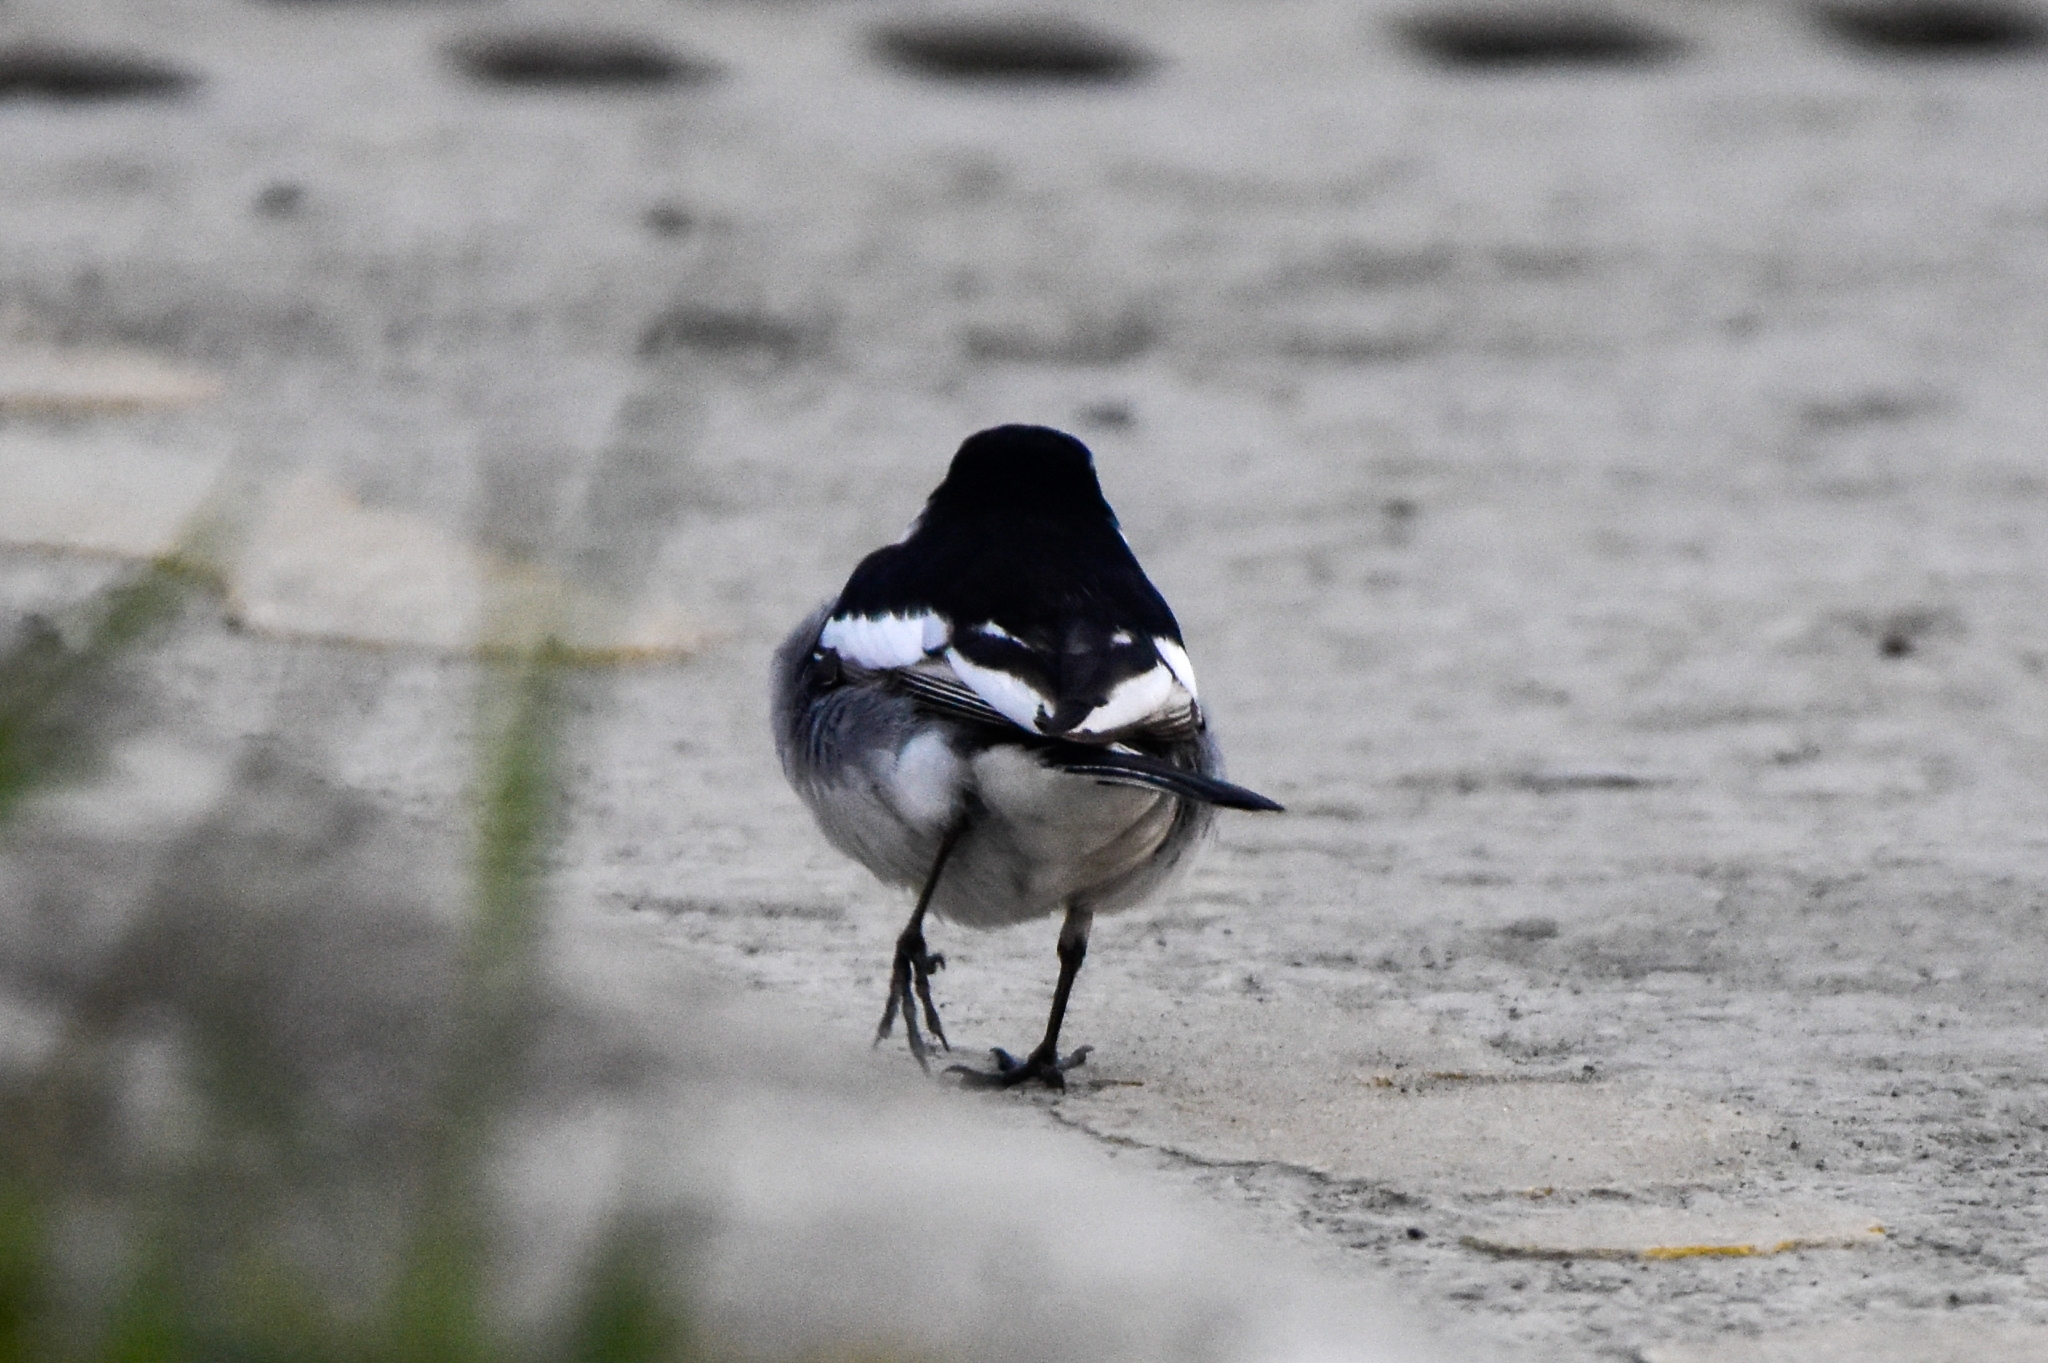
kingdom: Animalia
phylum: Chordata
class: Aves
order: Passeriformes
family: Motacillidae
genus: Motacilla
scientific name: Motacilla alba
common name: White wagtail
